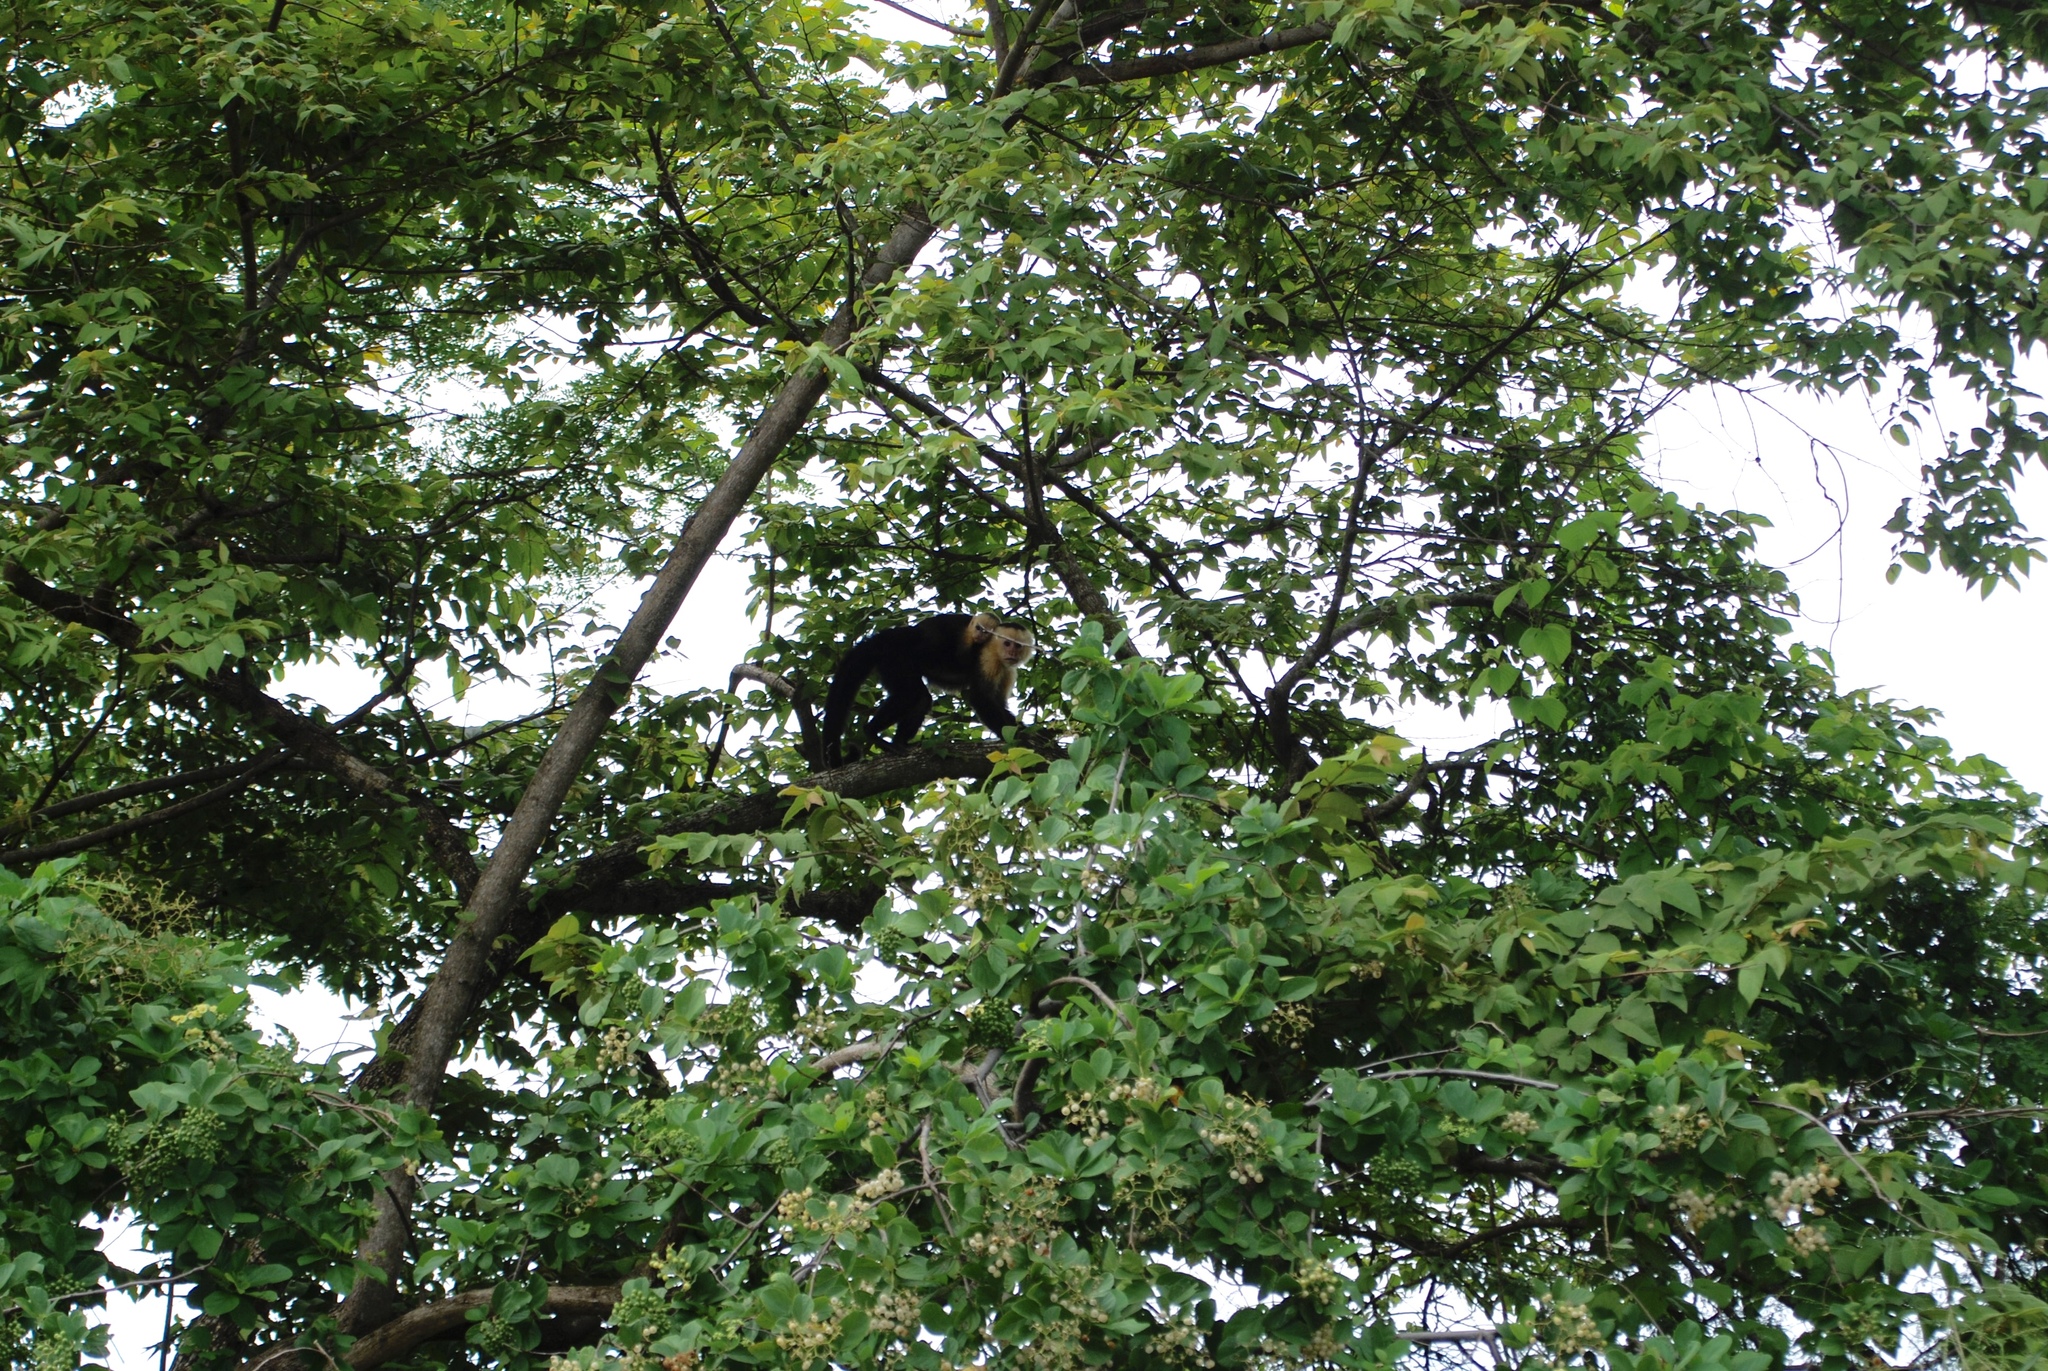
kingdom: Animalia
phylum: Chordata
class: Mammalia
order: Primates
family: Cebidae
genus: Cebus
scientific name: Cebus imitator
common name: Panamanian white-faced capuchin
